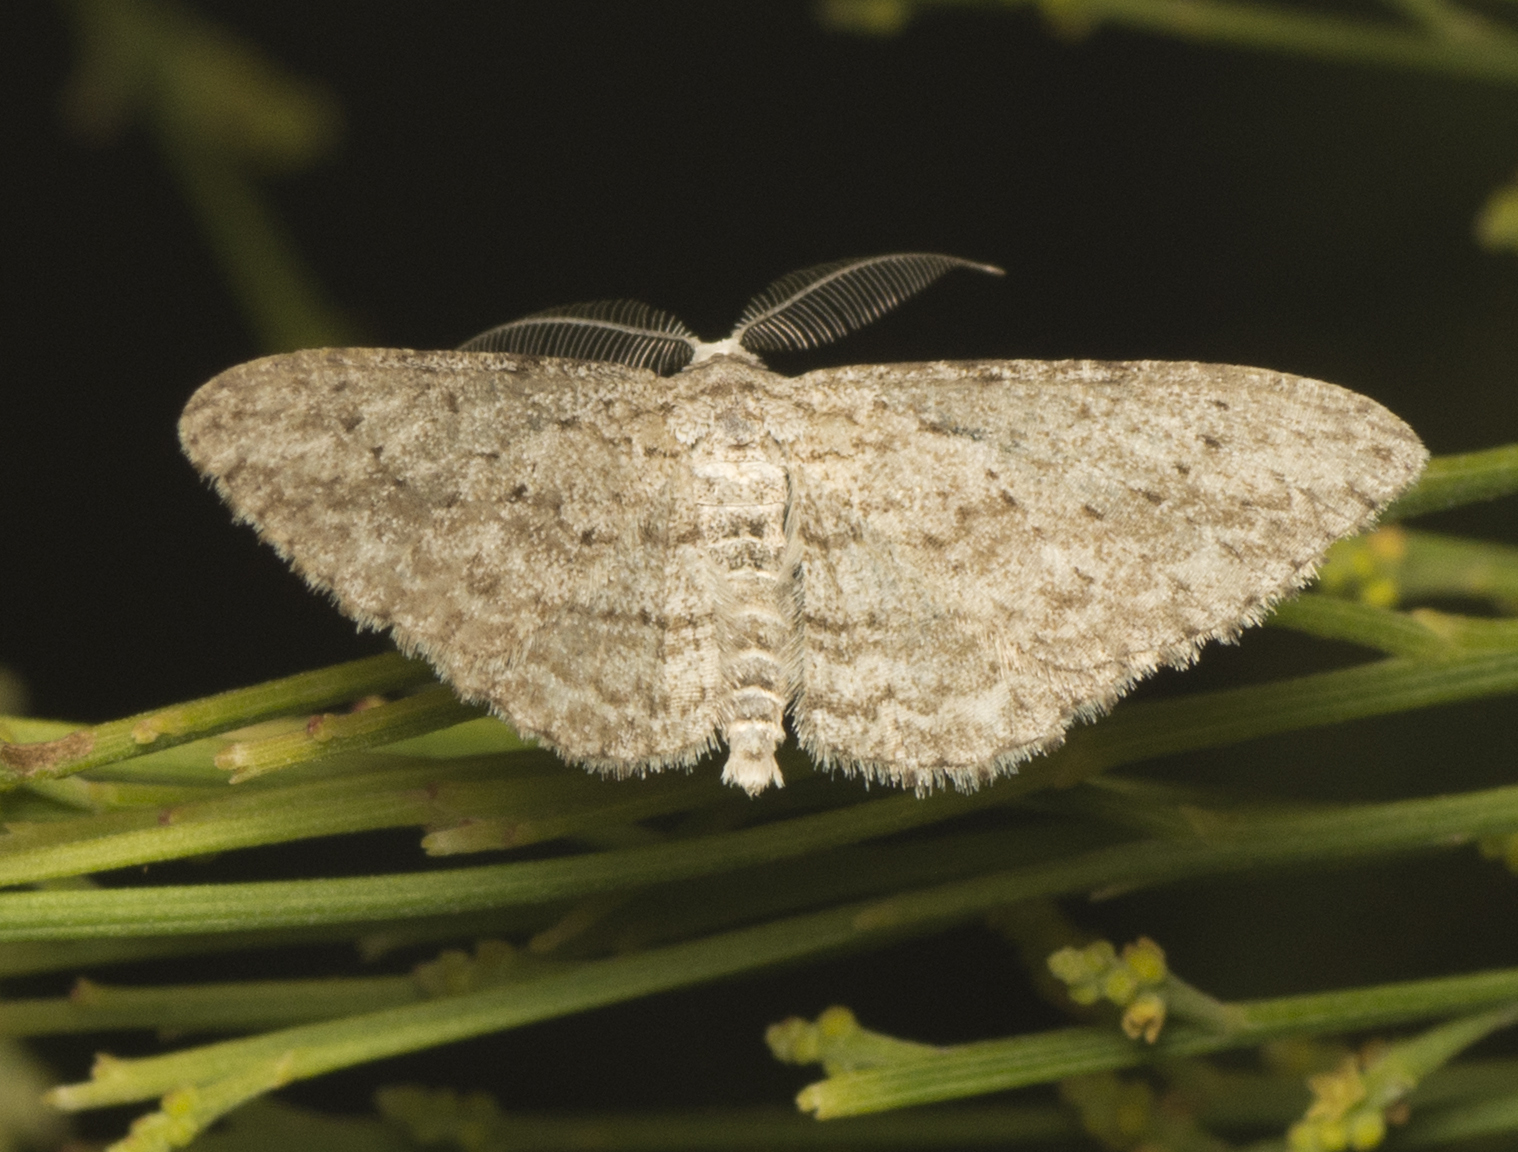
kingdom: Animalia
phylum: Arthropoda
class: Insecta
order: Lepidoptera
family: Geometridae
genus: Phelotis
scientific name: Phelotis cognata
